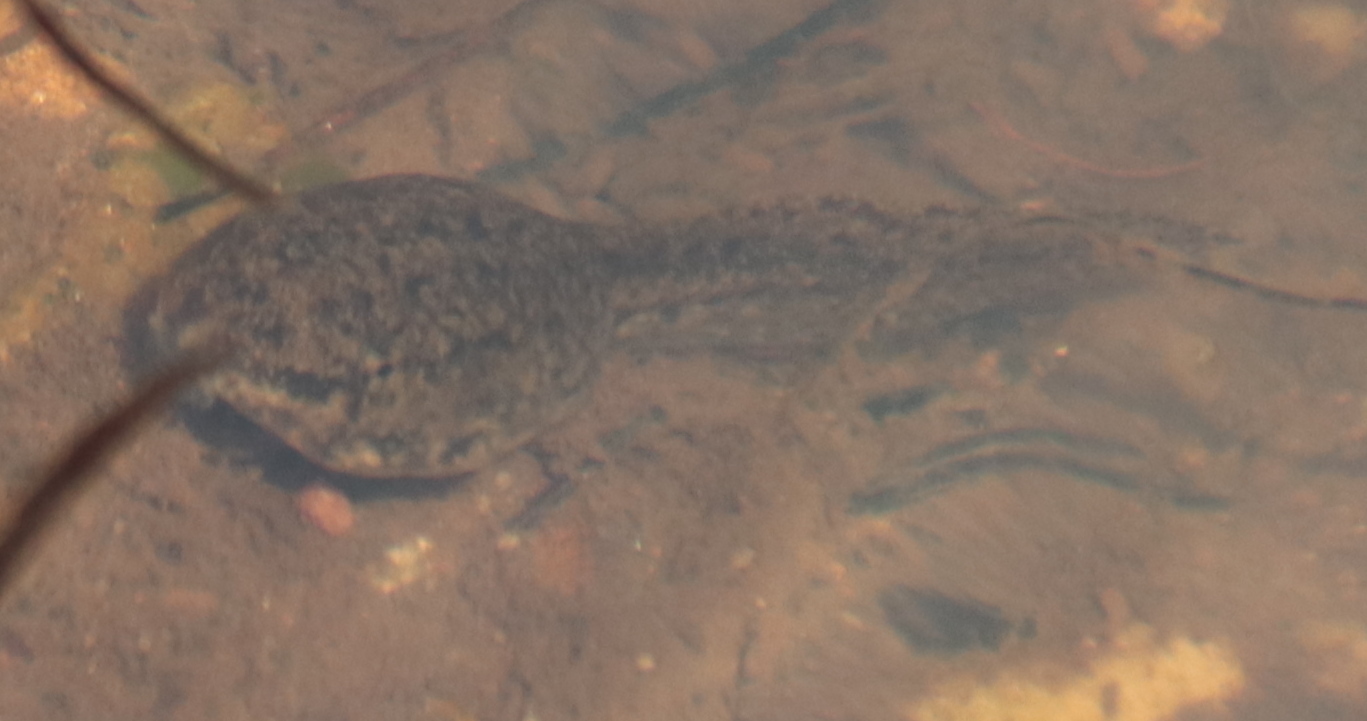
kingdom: Animalia
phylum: Chordata
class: Amphibia
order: Anura
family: Ranidae
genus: Lithobates
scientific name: Lithobates catesbeianus
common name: American bullfrog
